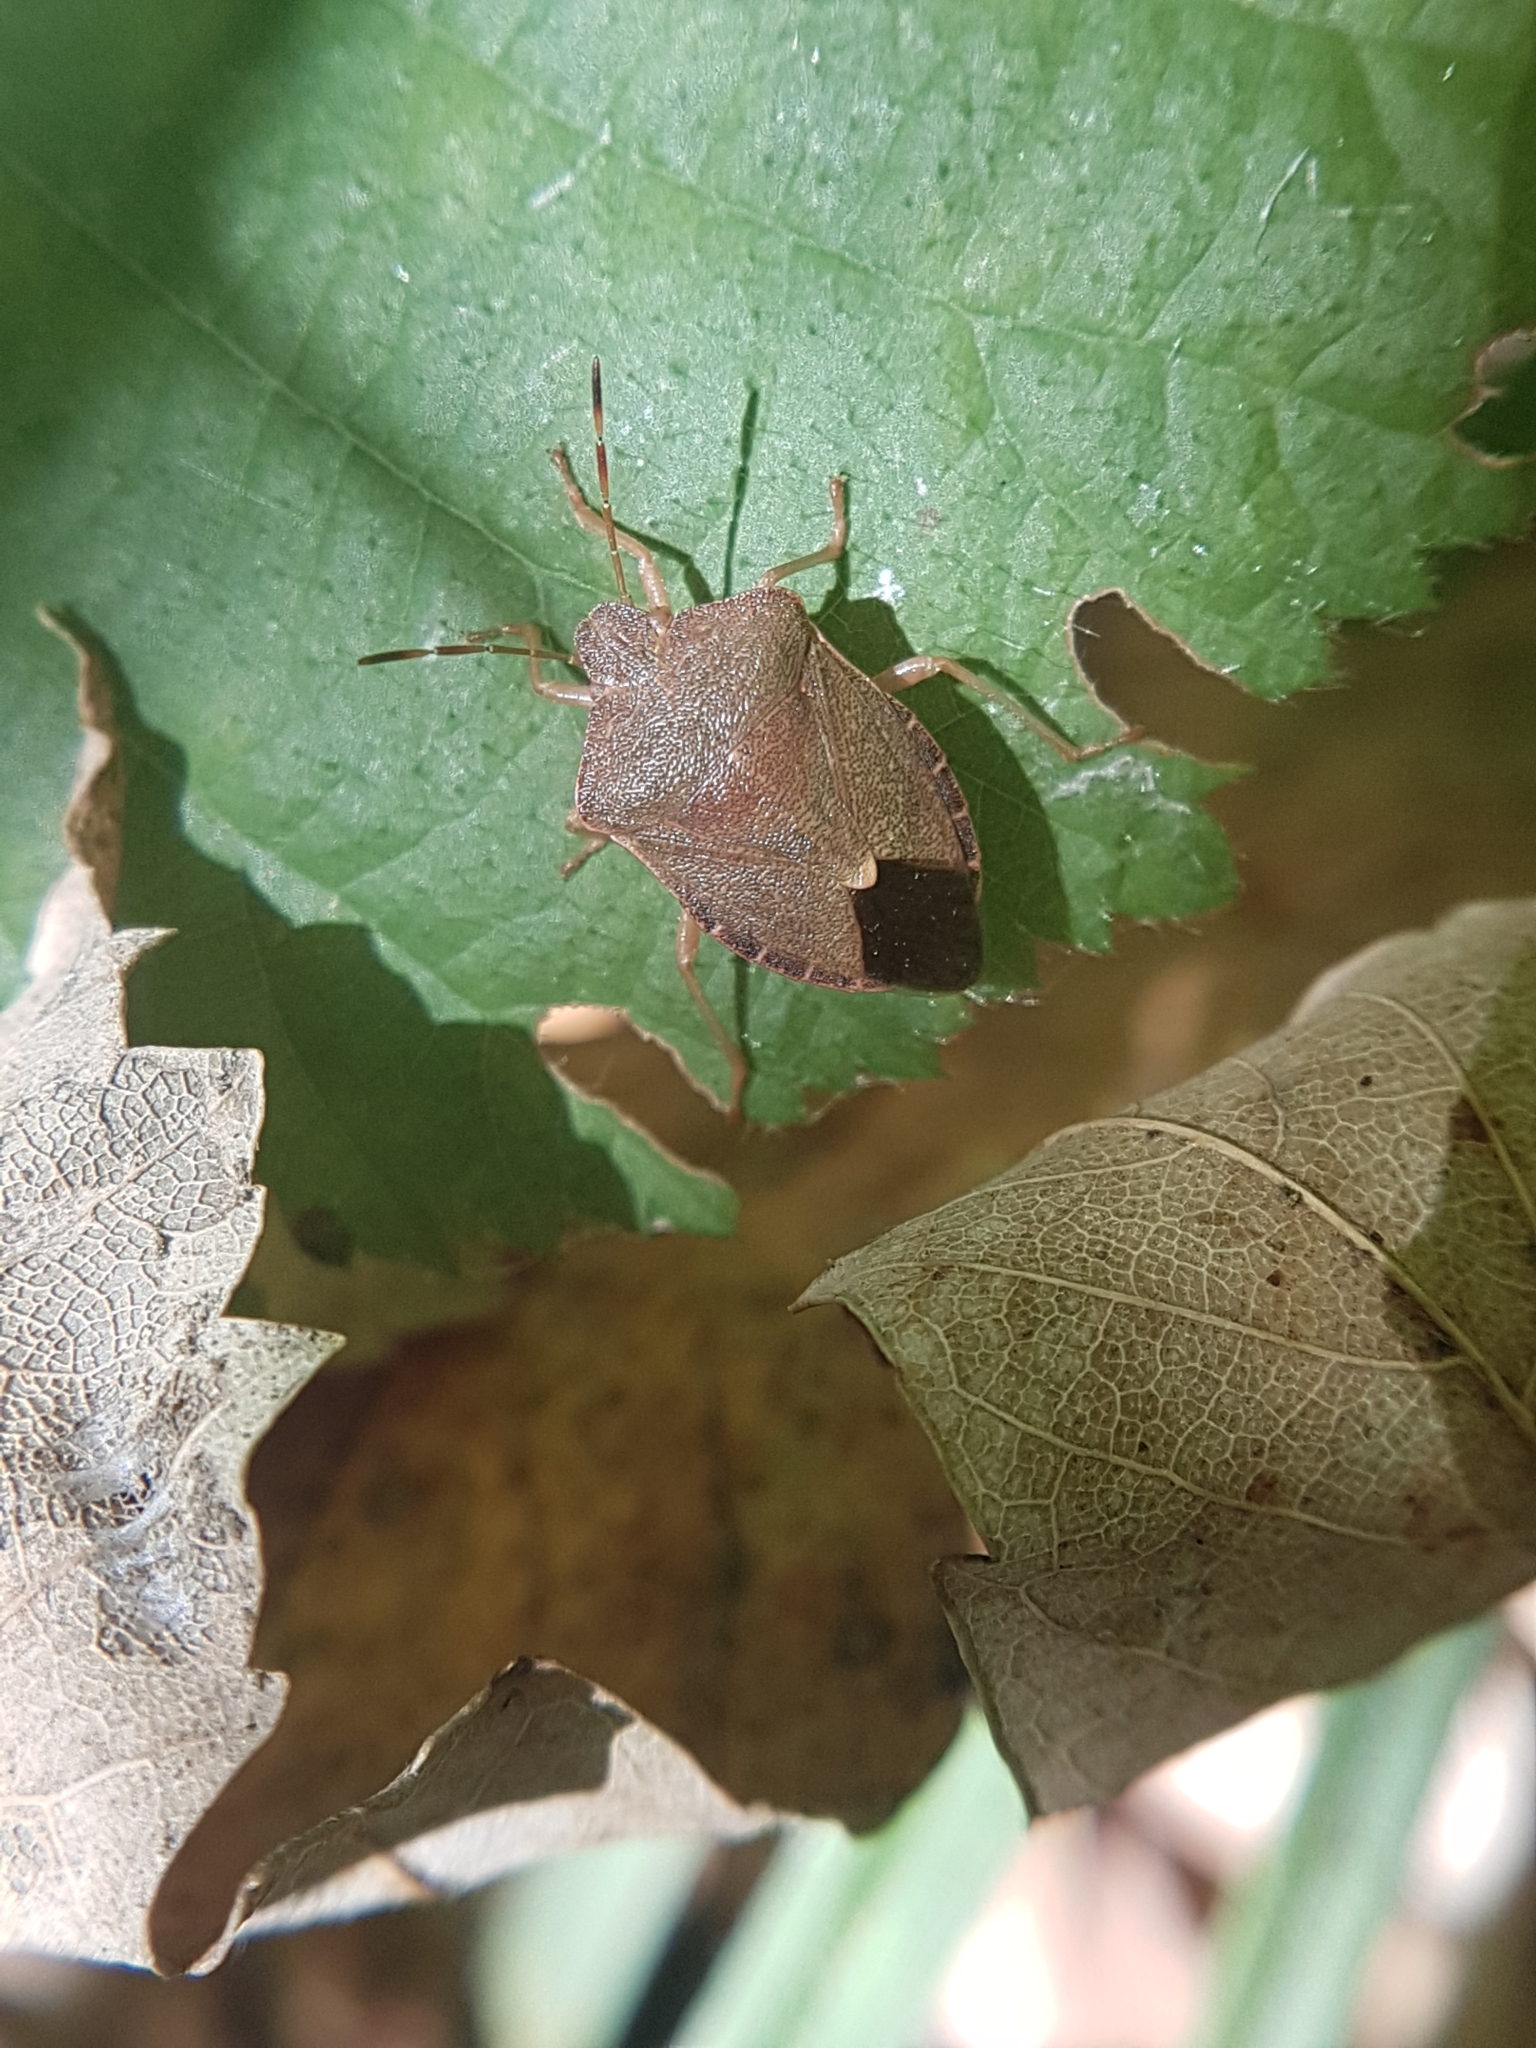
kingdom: Animalia
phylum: Arthropoda
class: Insecta
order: Hemiptera
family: Pentatomidae
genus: Palomena
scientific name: Palomena prasina
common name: Green shieldbug
